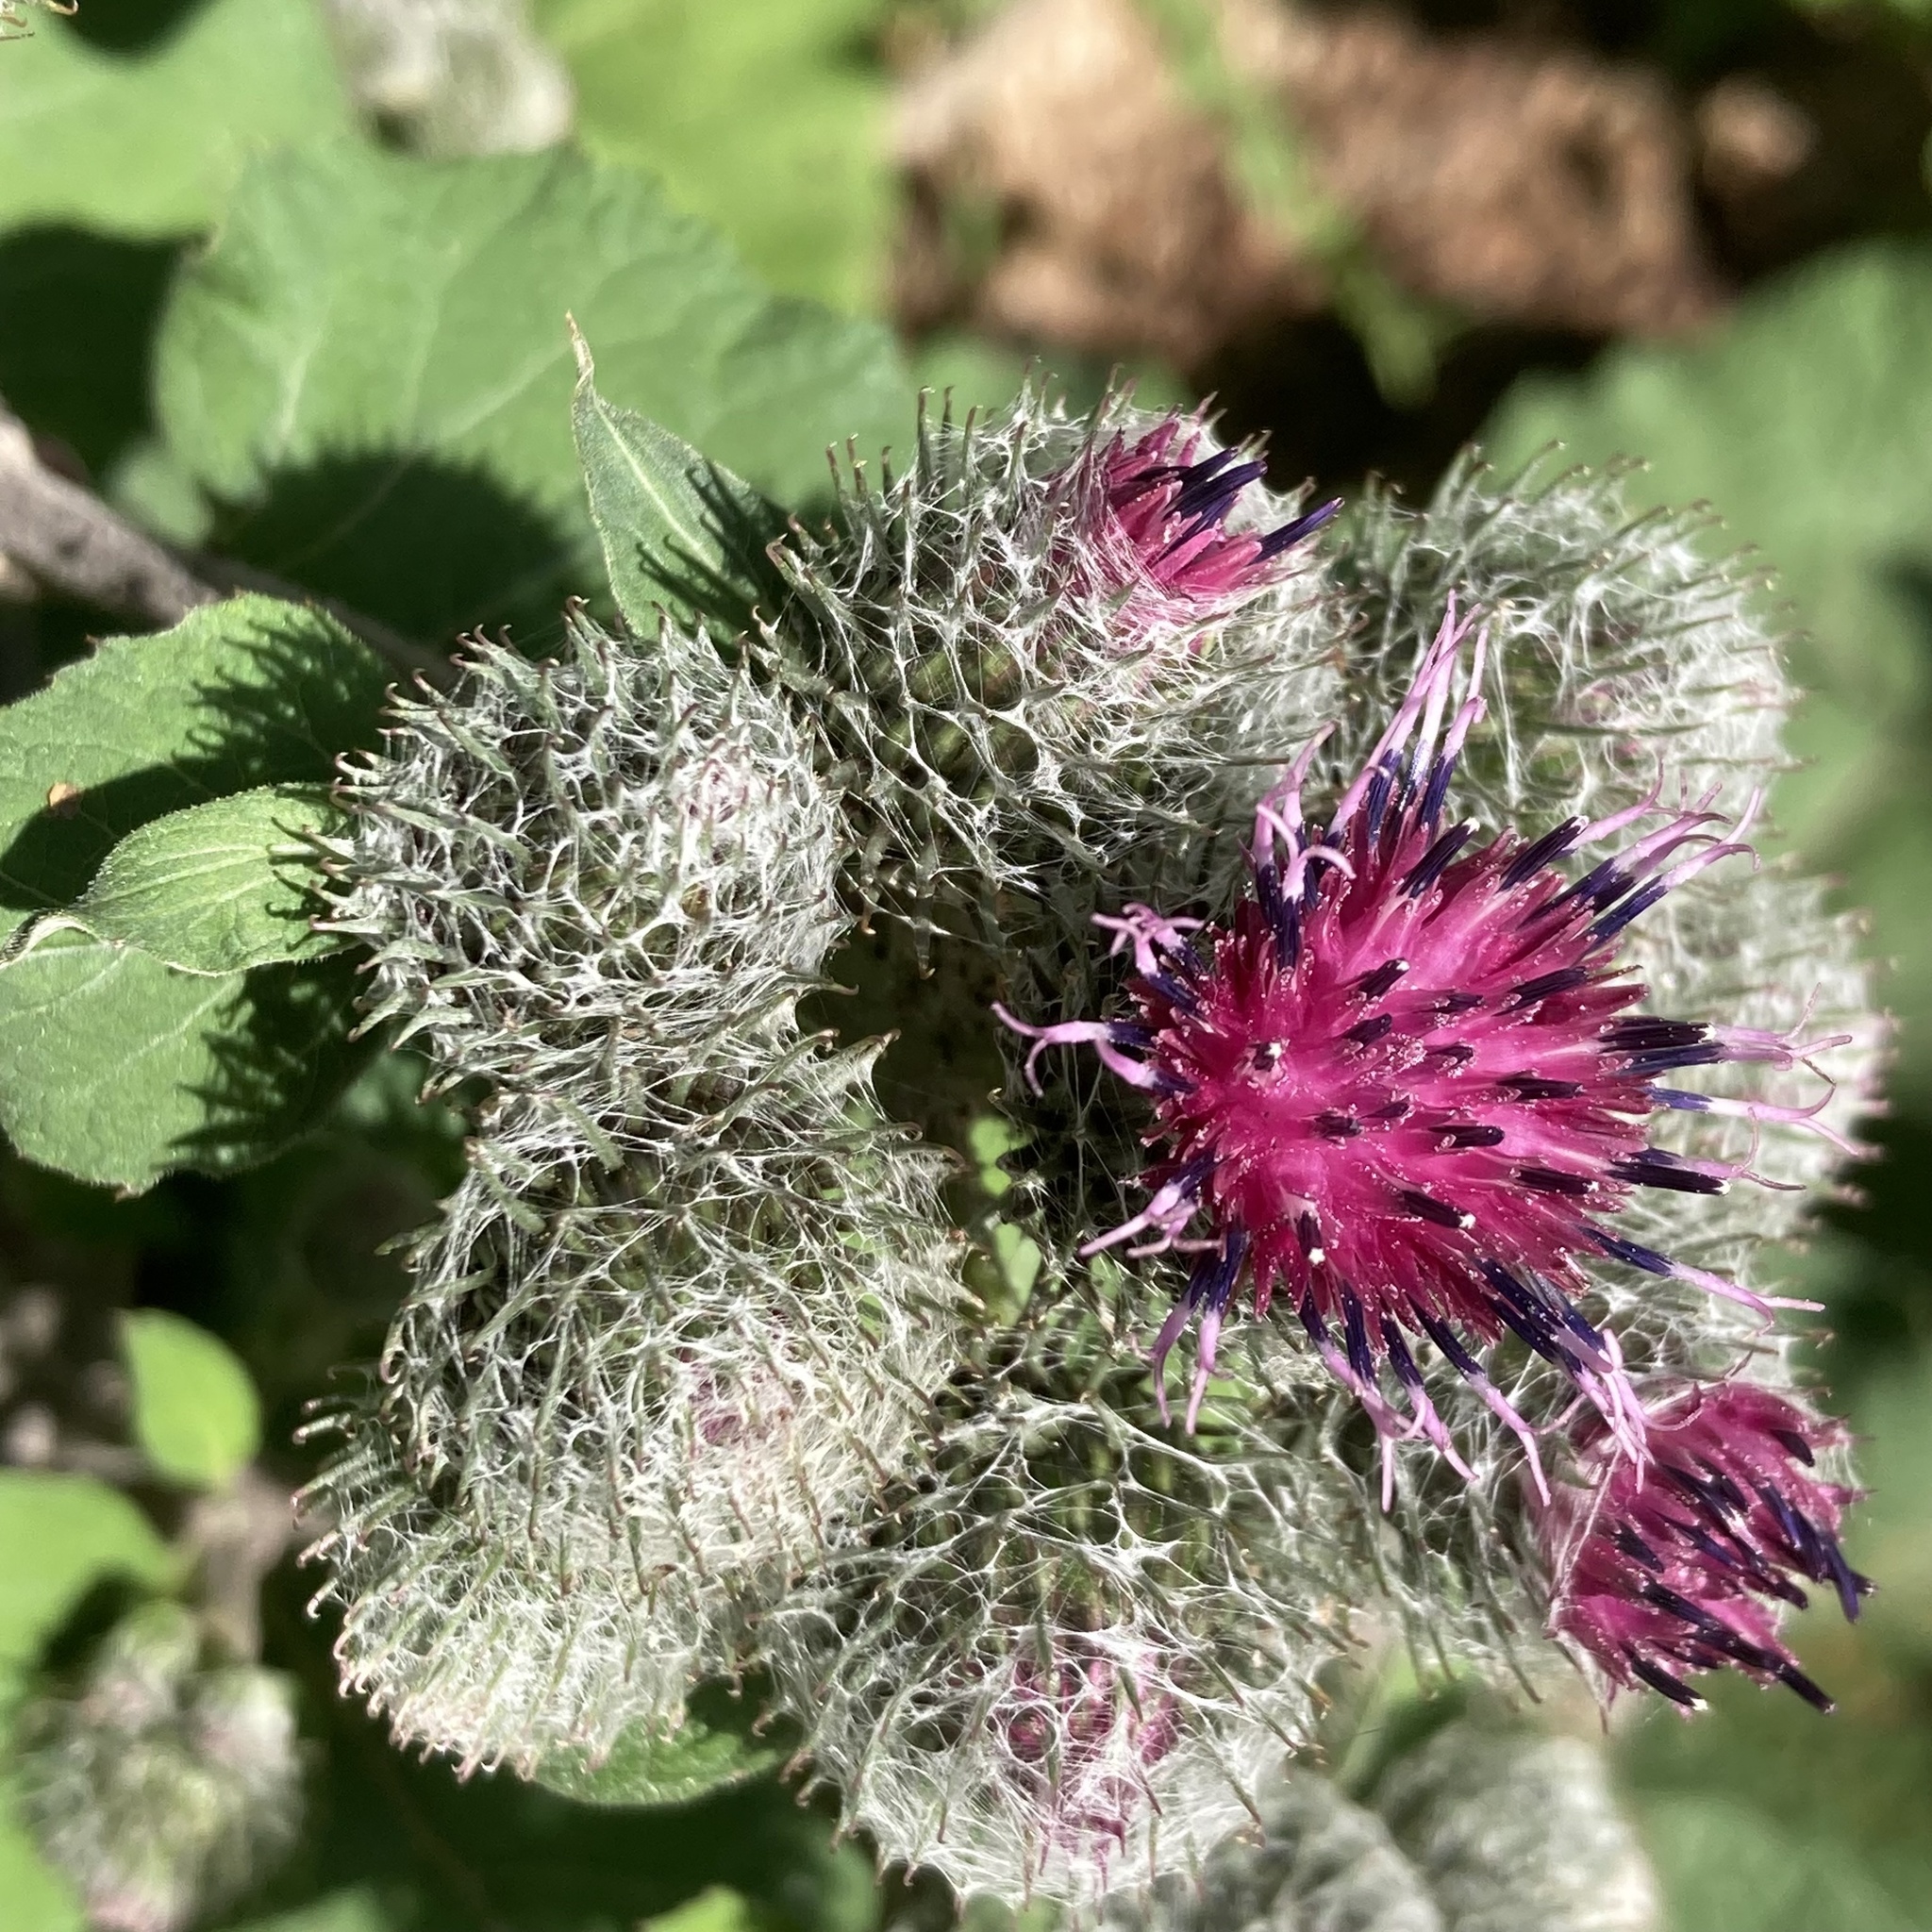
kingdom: Plantae
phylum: Tracheophyta
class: Magnoliopsida
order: Asterales
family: Asteraceae
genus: Arctium
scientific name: Arctium tomentosum
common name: Woolly burdock
